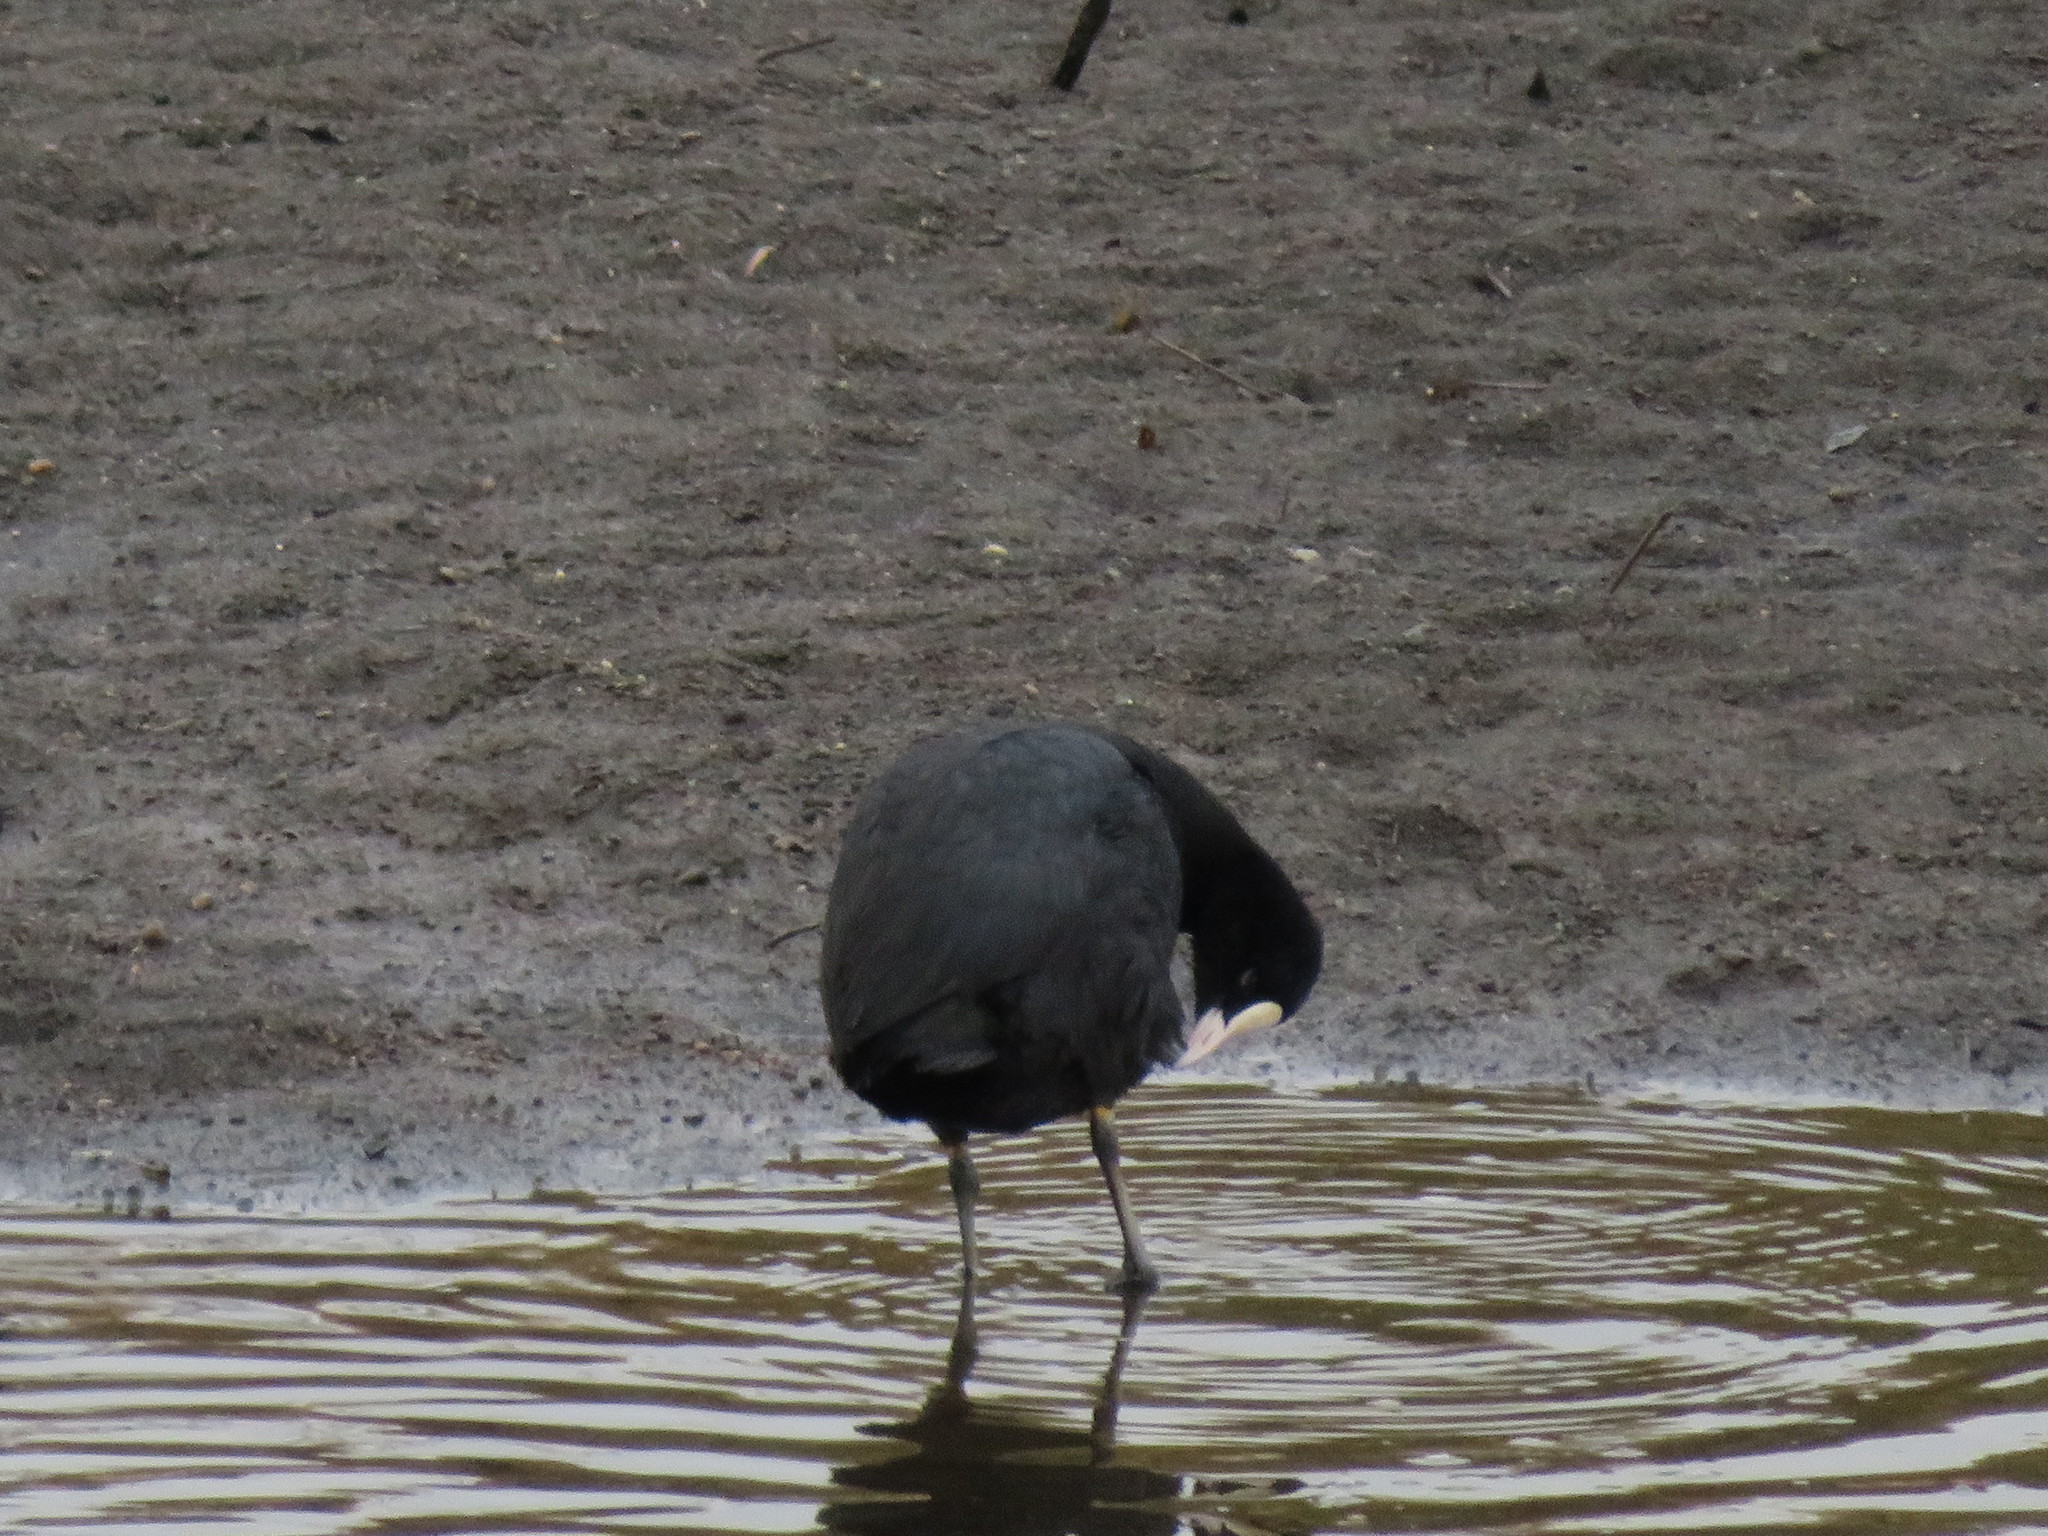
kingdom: Animalia
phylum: Chordata
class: Aves
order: Gruiformes
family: Rallidae
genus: Fulica
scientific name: Fulica atra
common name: Eurasian coot
